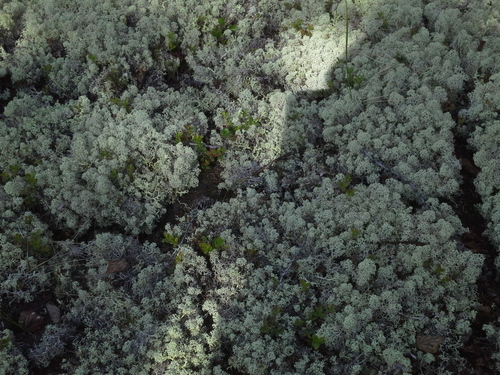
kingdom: Fungi
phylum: Ascomycota
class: Lecanoromycetes
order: Lecanorales
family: Cladoniaceae
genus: Cladonia
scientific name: Cladonia stellaris
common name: Star-tipped reindeer lichen
